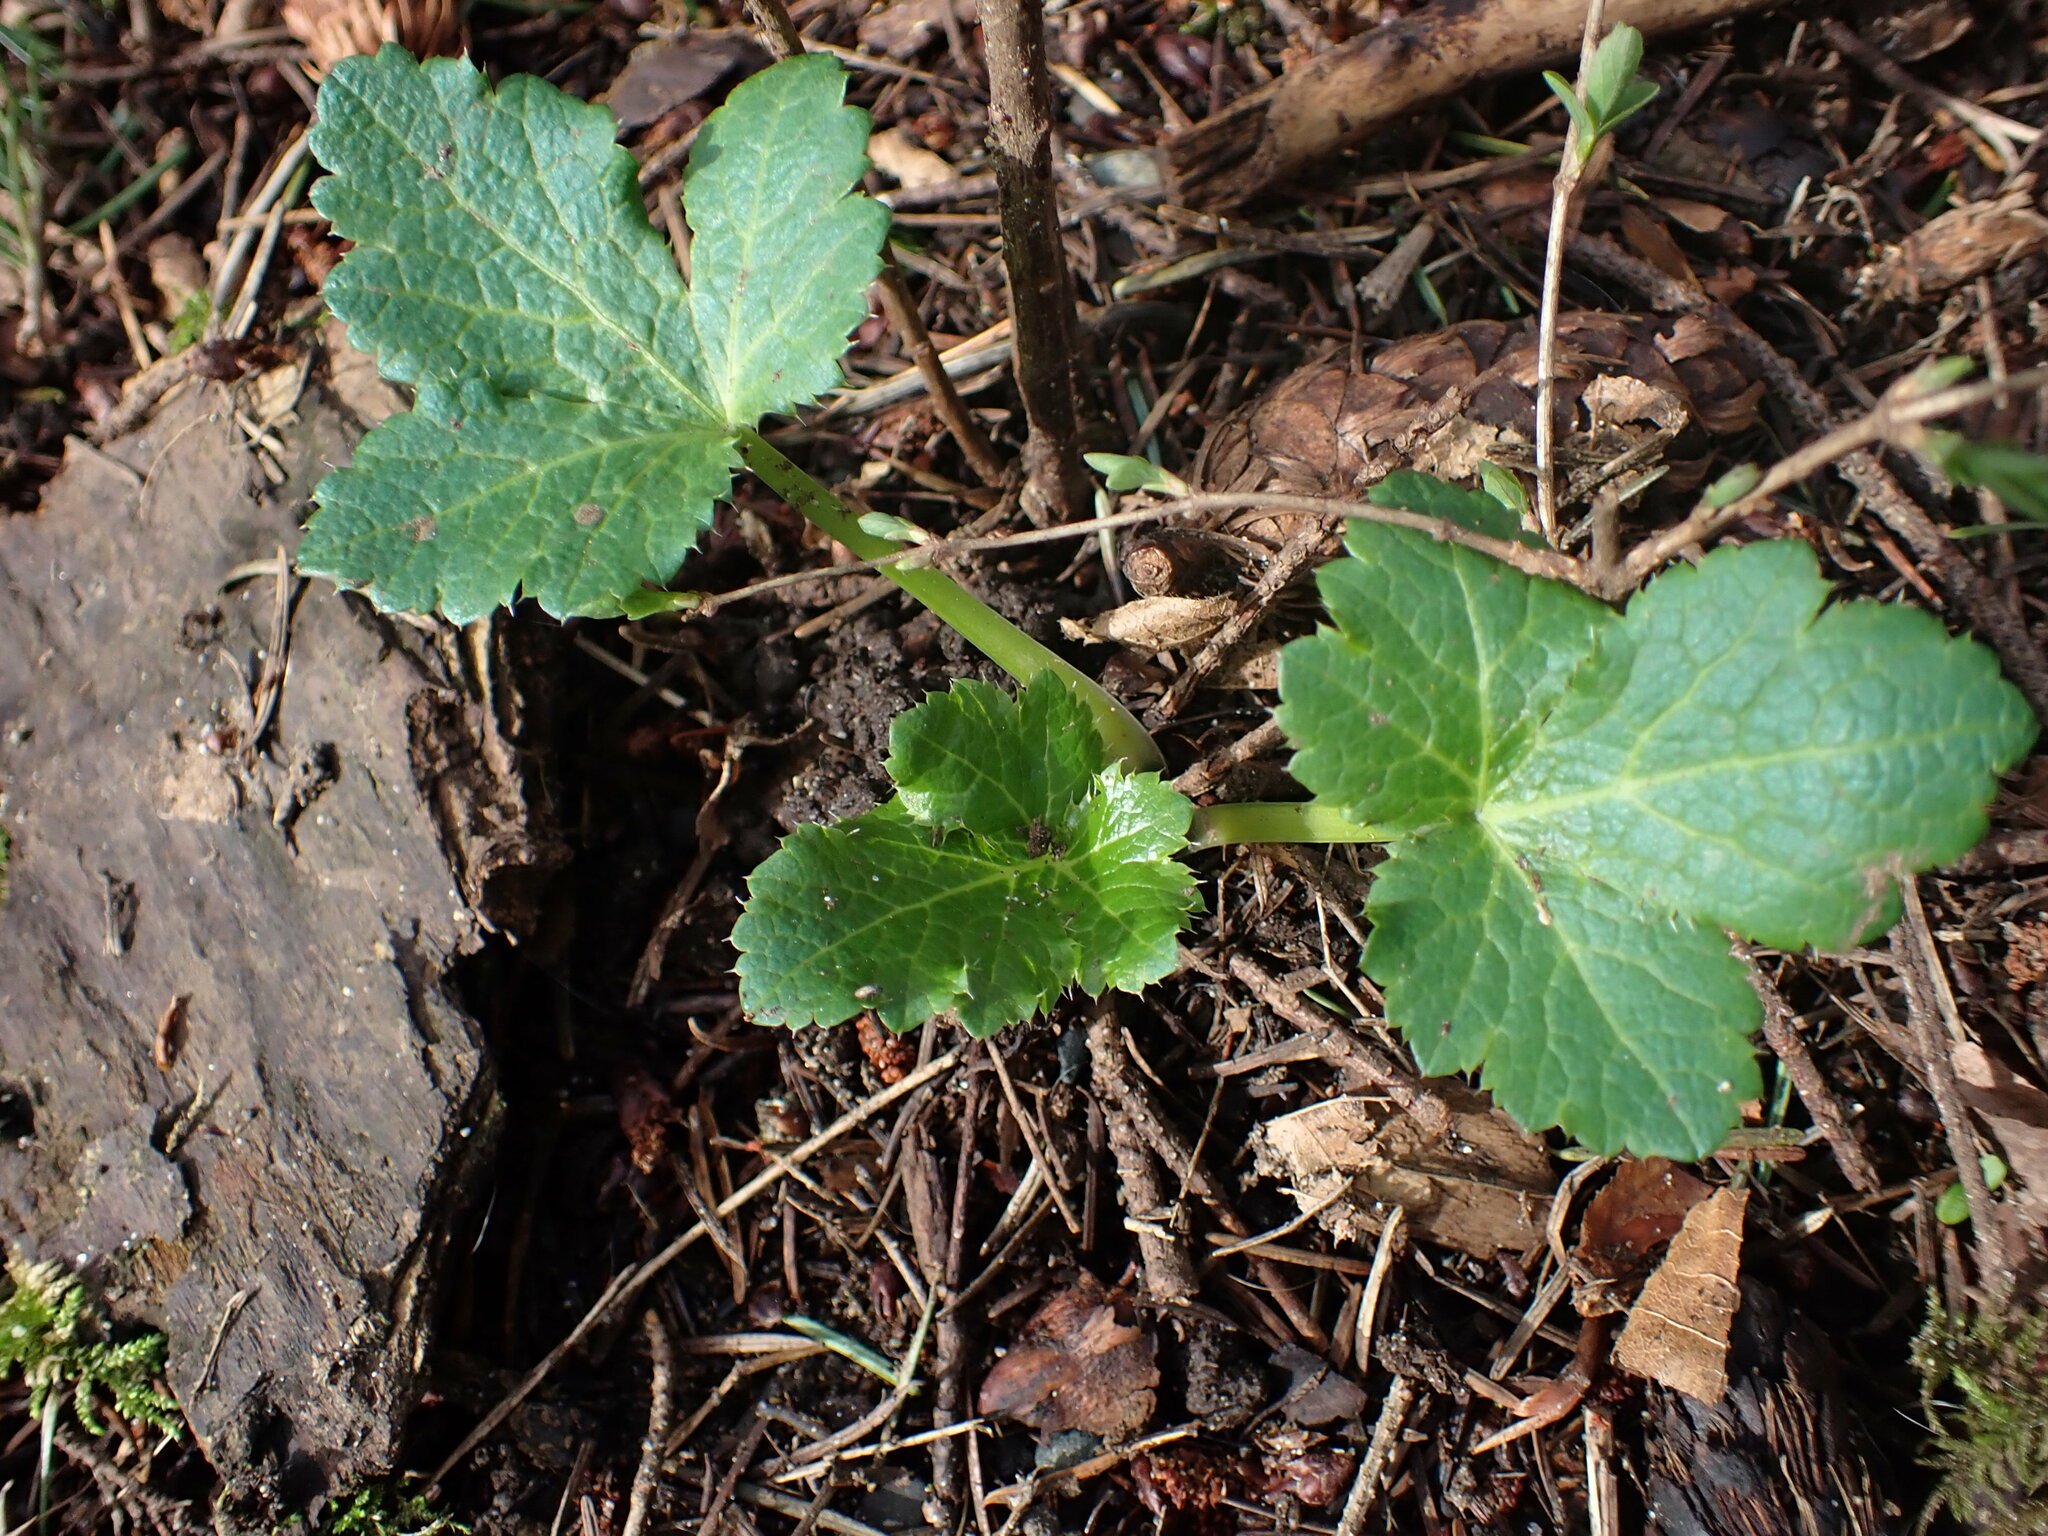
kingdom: Plantae
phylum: Tracheophyta
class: Magnoliopsida
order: Apiales
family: Apiaceae
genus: Sanicula
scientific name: Sanicula crassicaulis
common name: Western snakeroot
